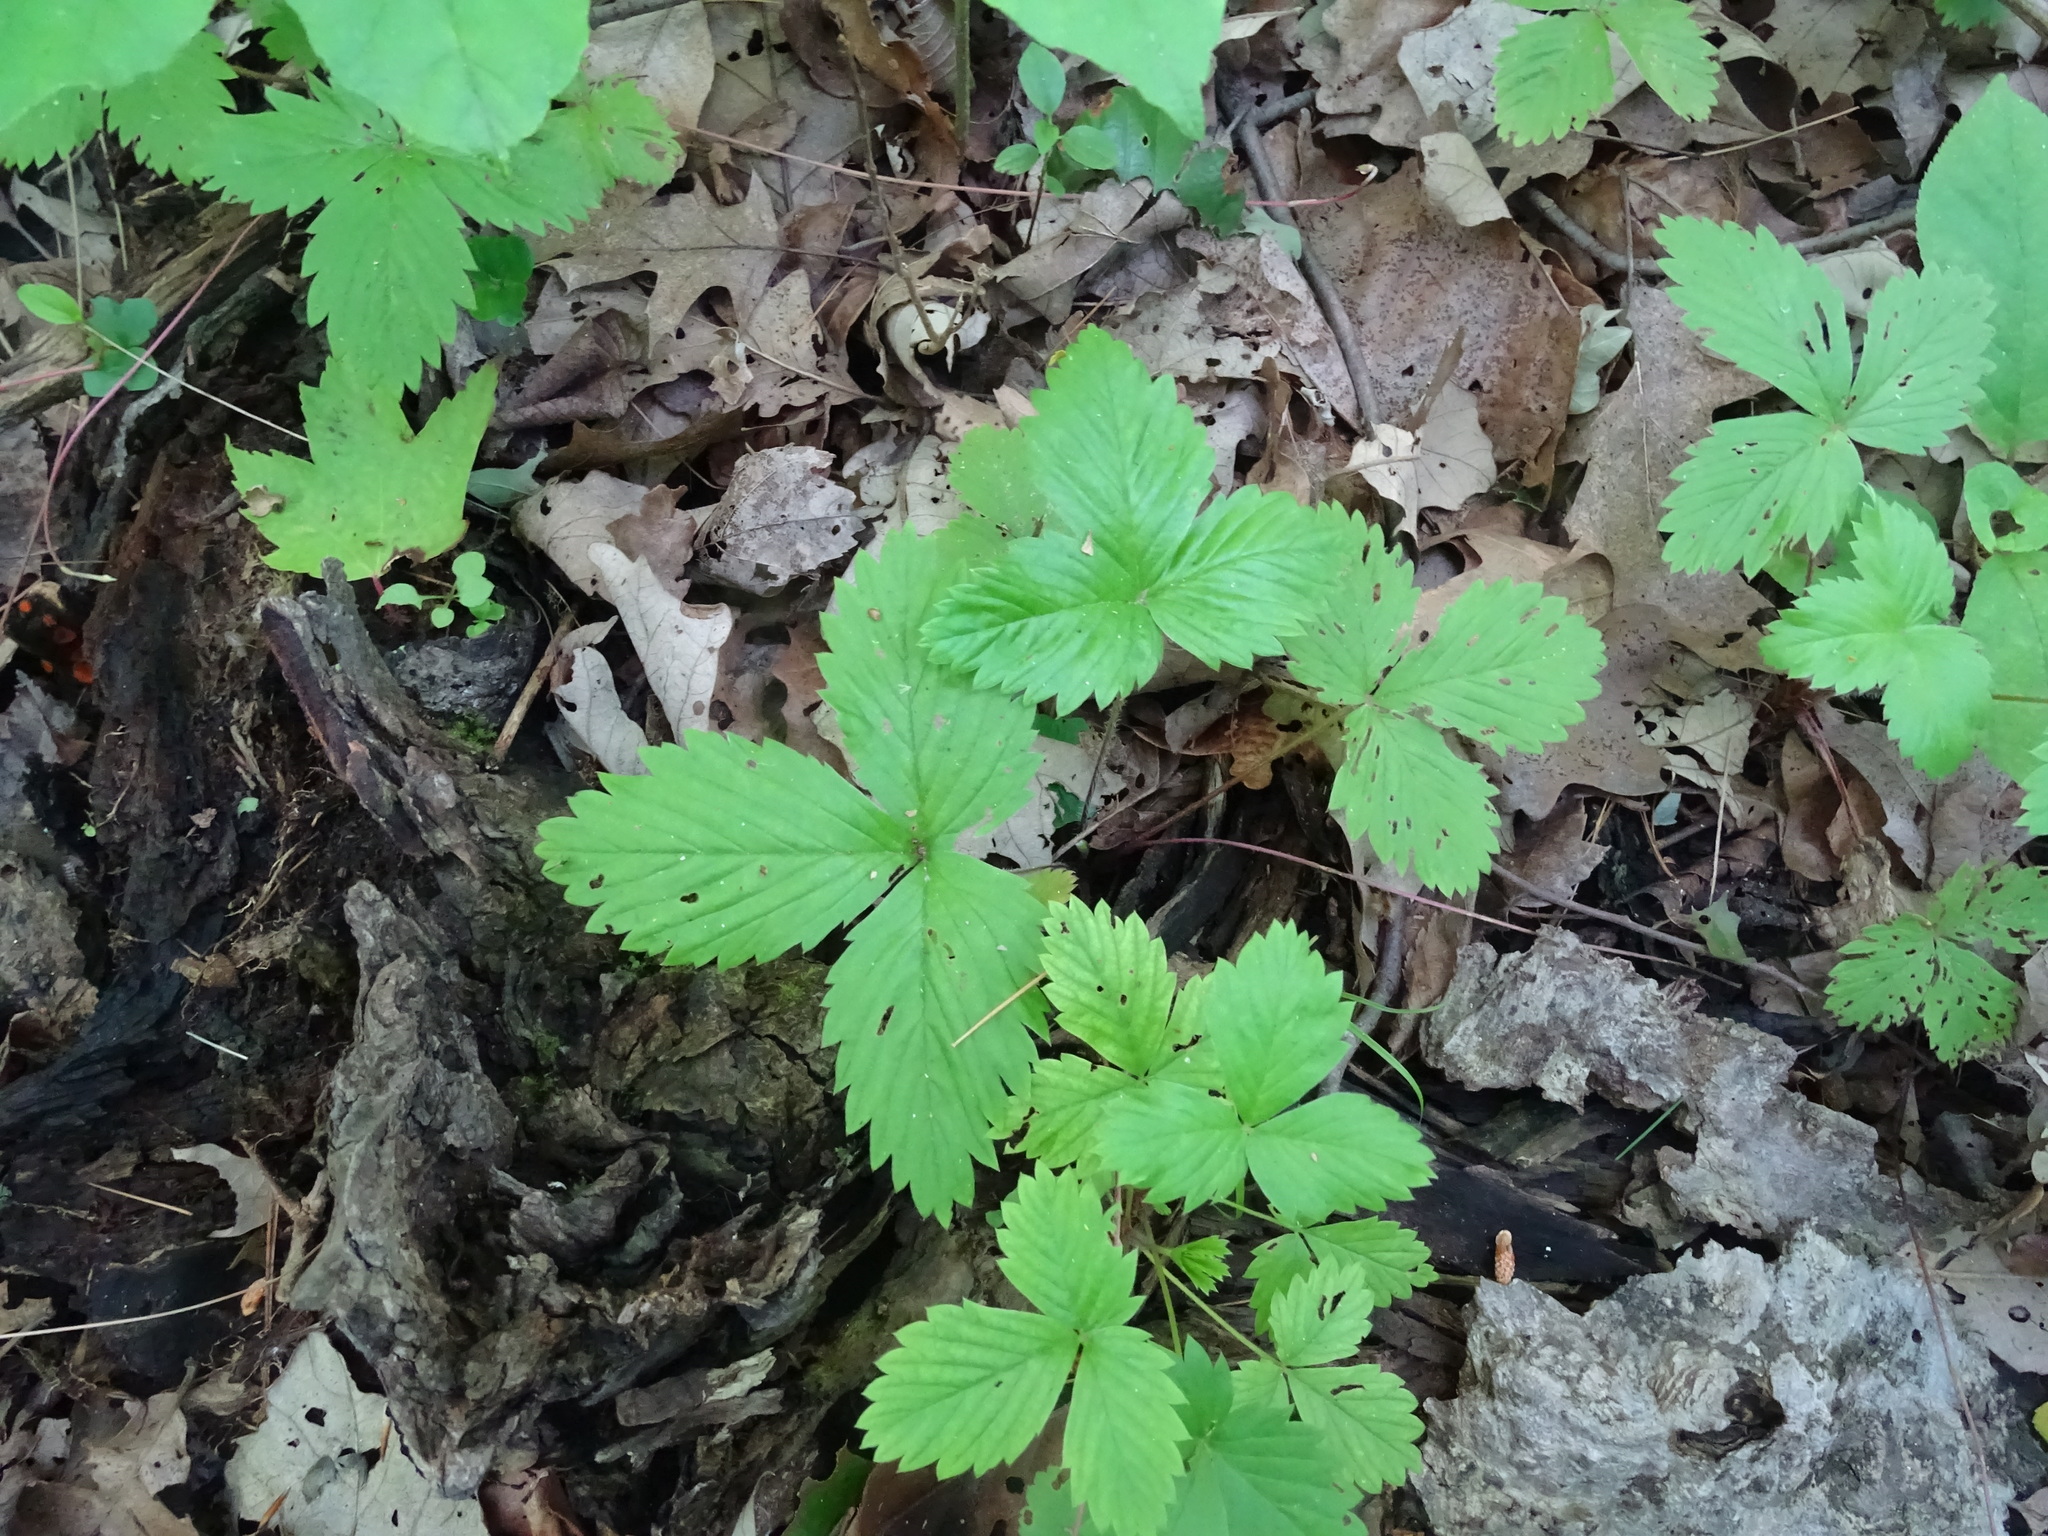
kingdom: Plantae
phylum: Tracheophyta
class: Magnoliopsida
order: Rosales
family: Rosaceae
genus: Fragaria
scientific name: Fragaria vesca
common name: Wild strawberry
